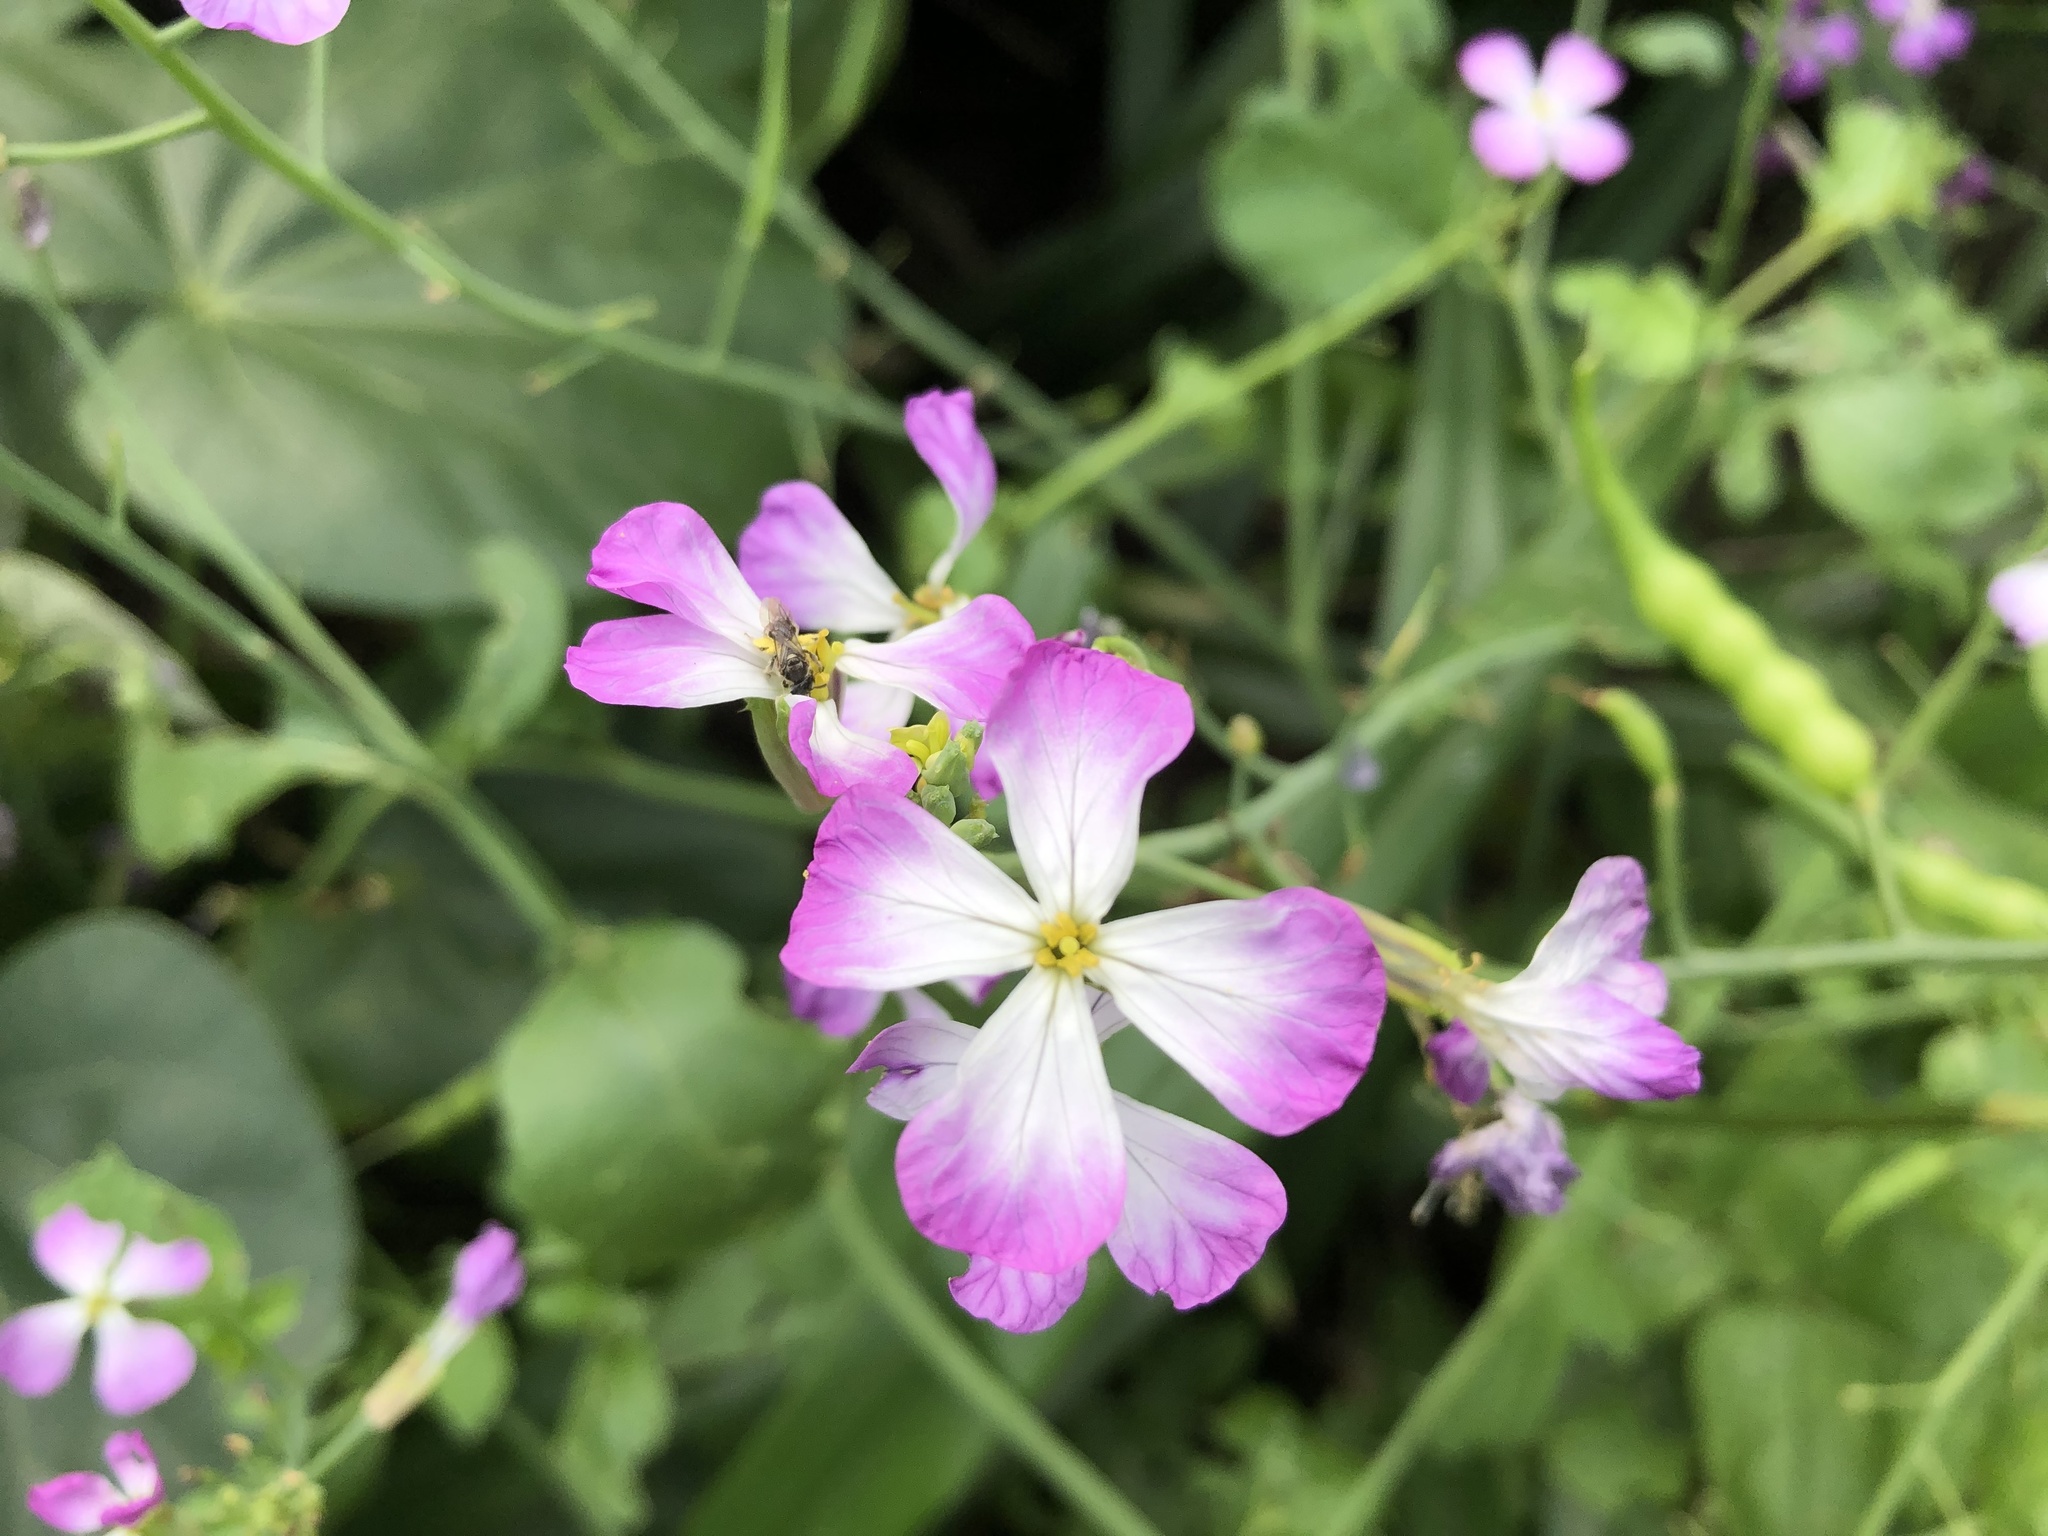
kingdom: Plantae
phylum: Tracheophyta
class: Magnoliopsida
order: Brassicales
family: Brassicaceae
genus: Raphanus
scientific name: Raphanus sativus
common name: Cultivated radish
